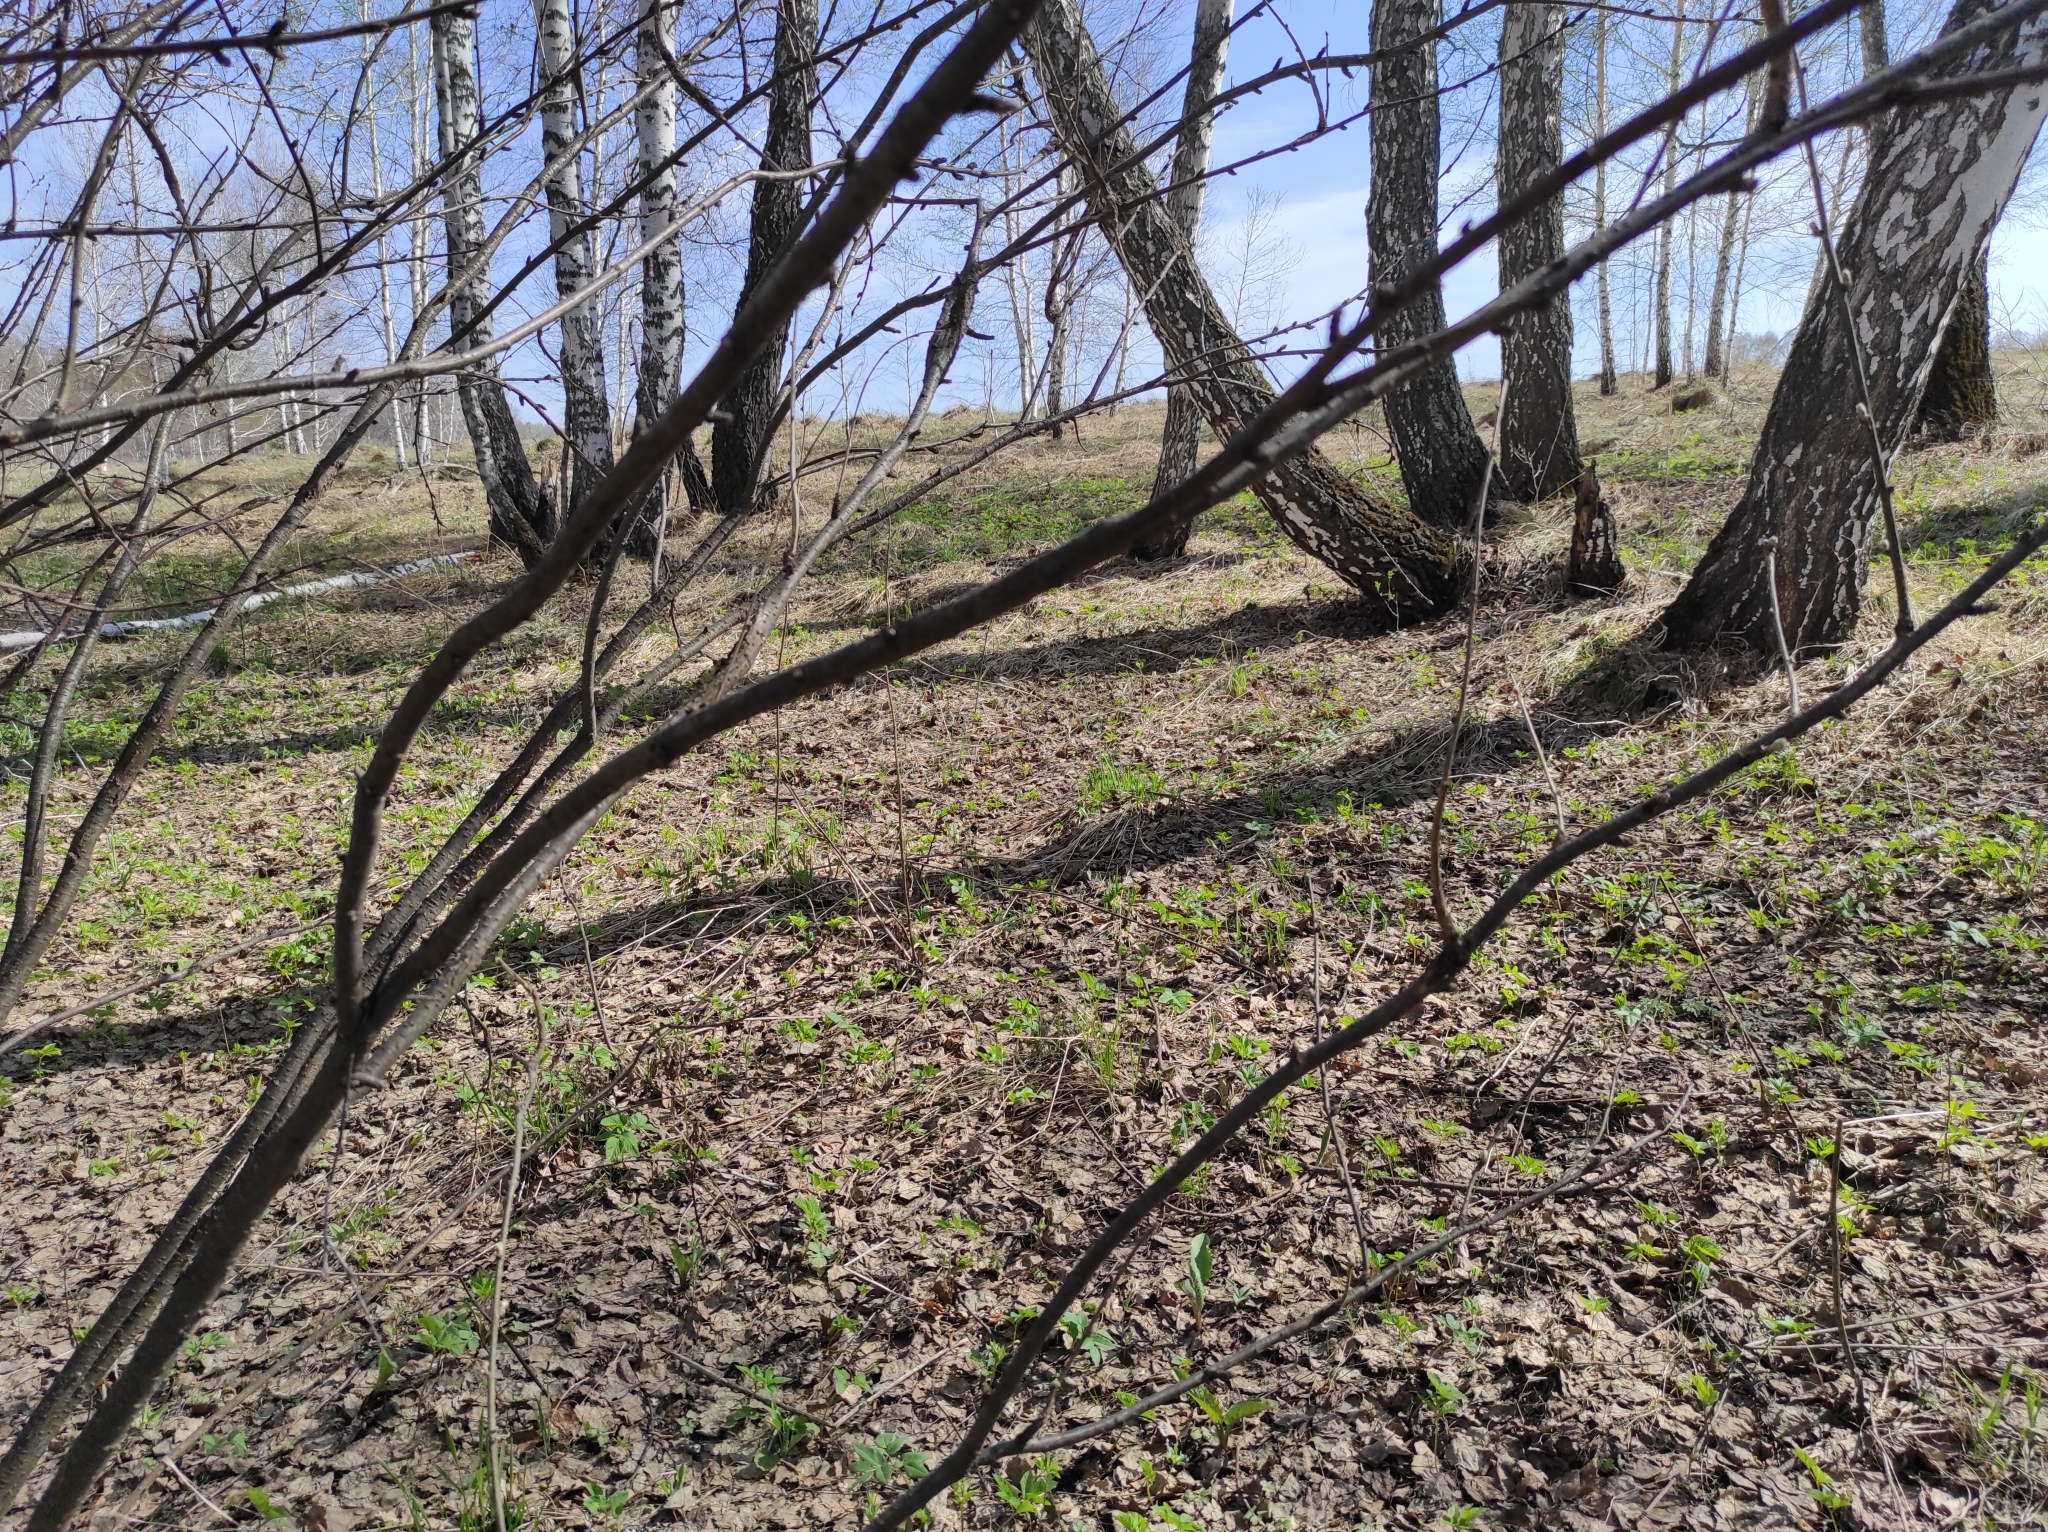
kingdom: Fungi
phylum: Ascomycota
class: Pezizomycetes
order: Pezizales
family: Morchellaceae
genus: Verpa
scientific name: Verpa bohemica
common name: Wrinkled thimble morel
